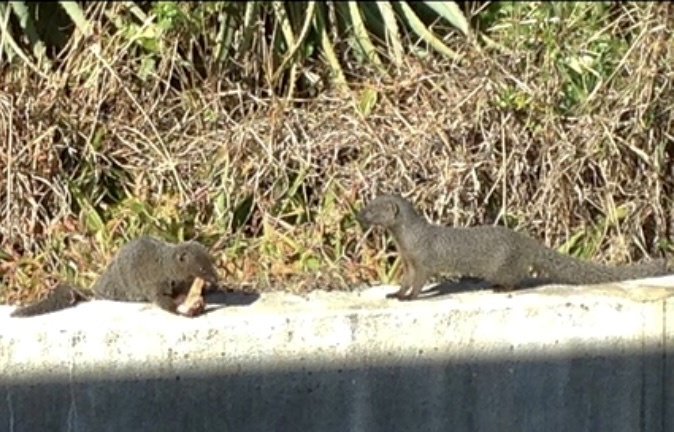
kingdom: Animalia
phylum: Chordata
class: Mammalia
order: Carnivora
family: Herpestidae
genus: Galerella
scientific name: Galerella pulverulenta
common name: Cape gray mongoose
